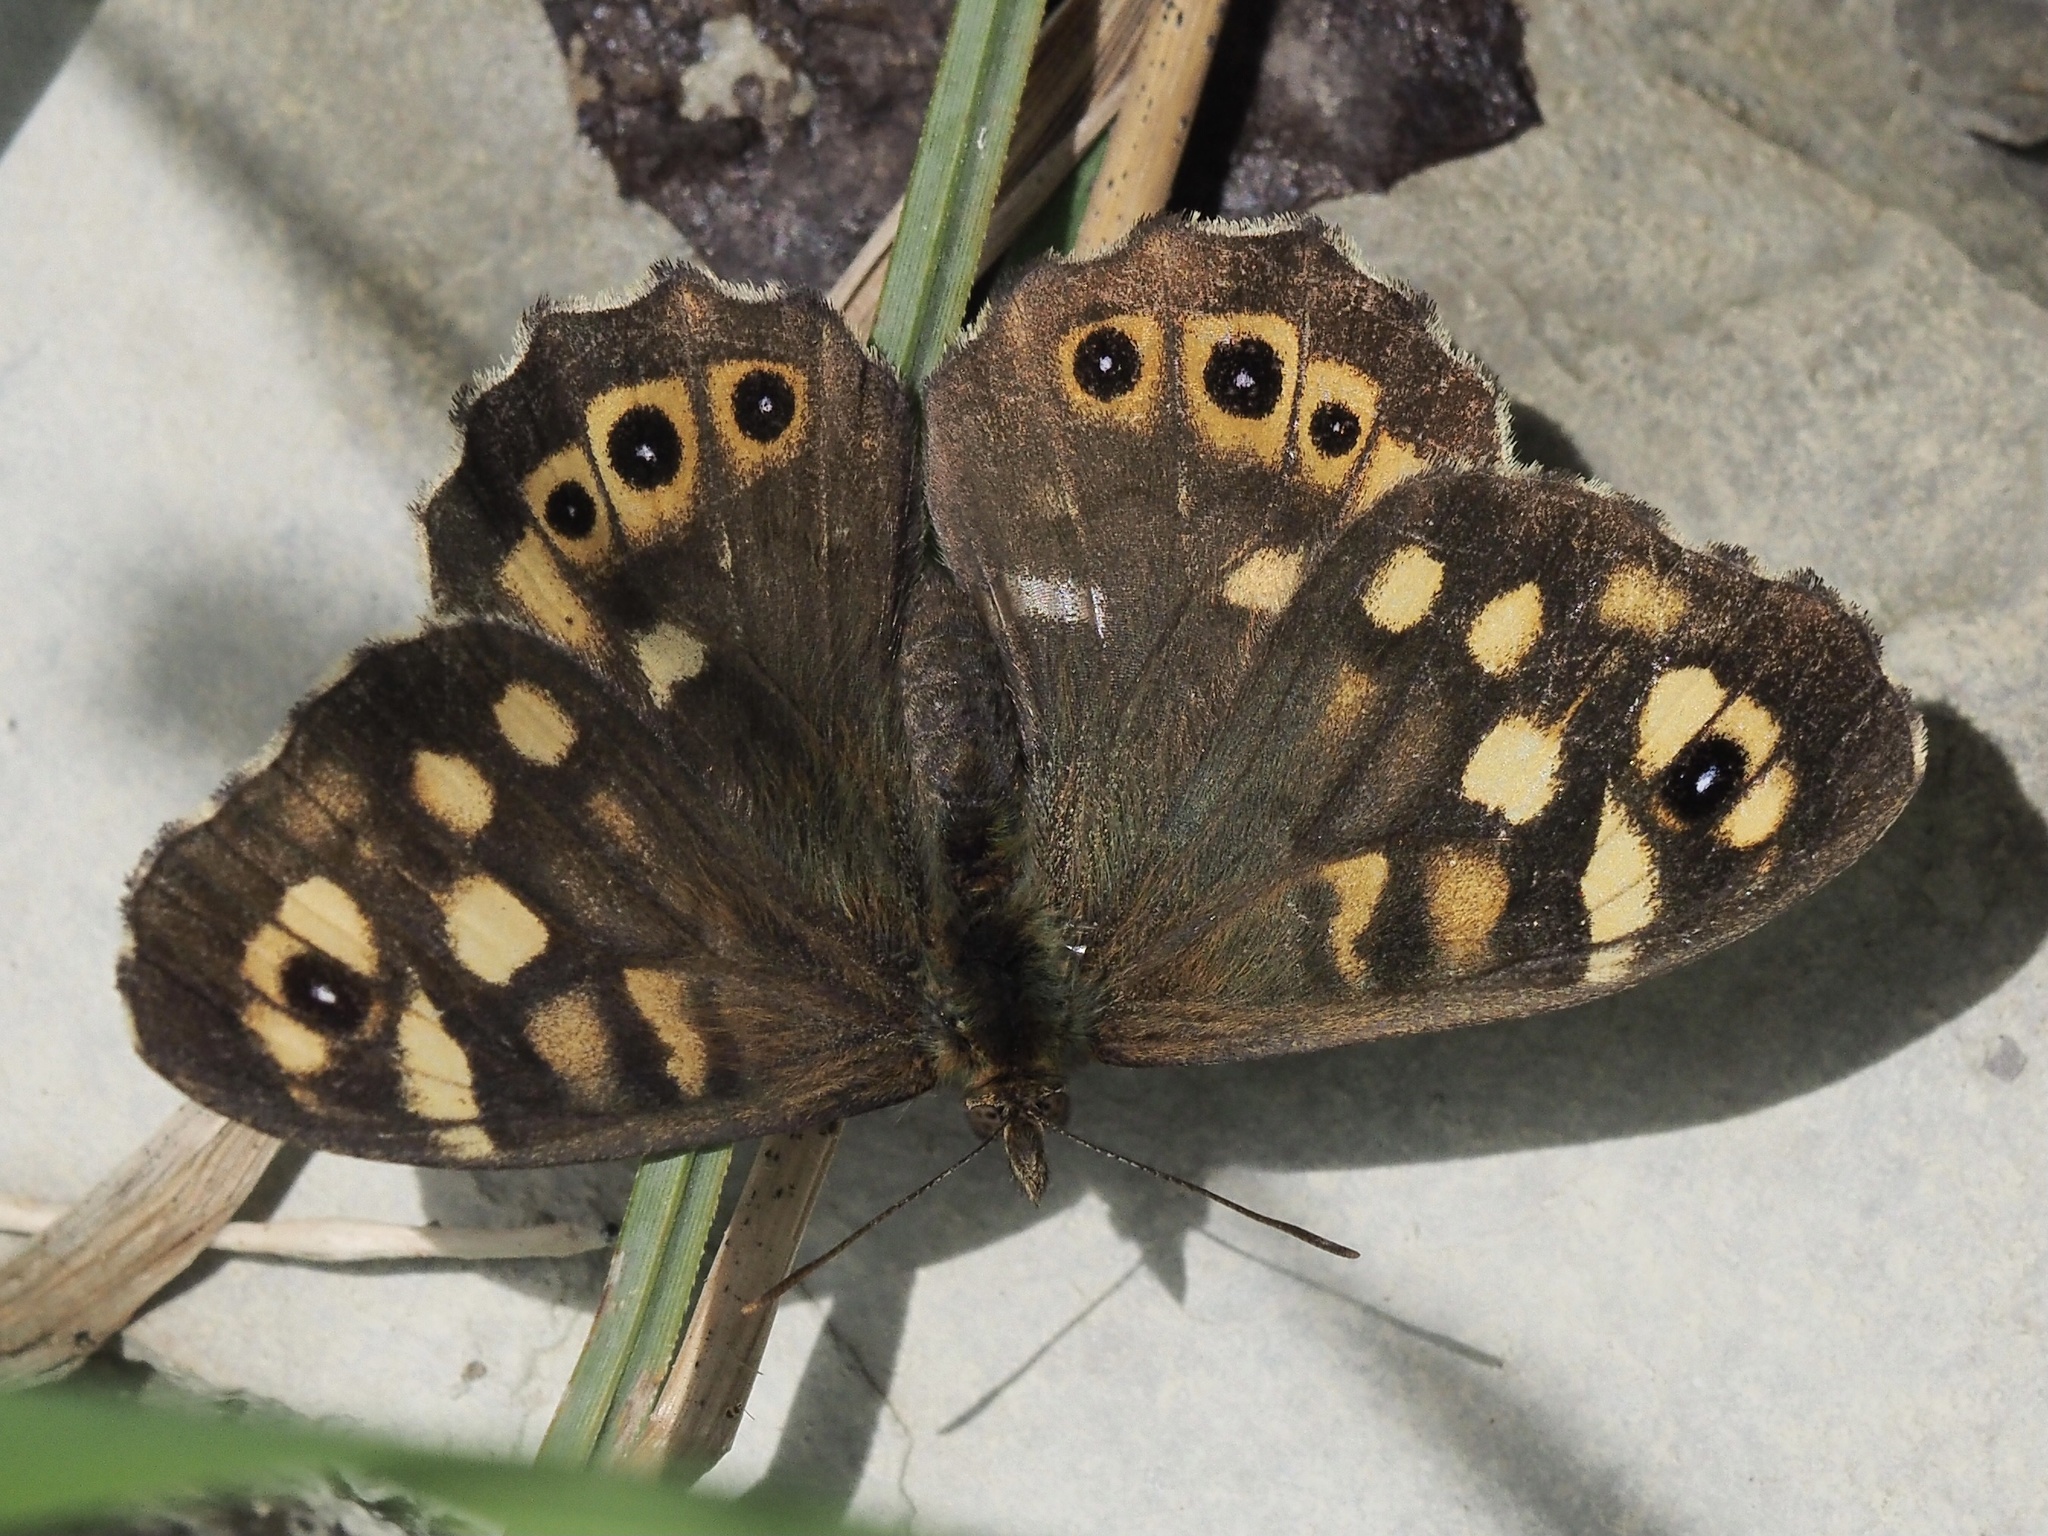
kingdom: Animalia
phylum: Arthropoda
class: Insecta
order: Lepidoptera
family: Nymphalidae
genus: Pararge
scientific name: Pararge aegeria
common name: Speckled wood
